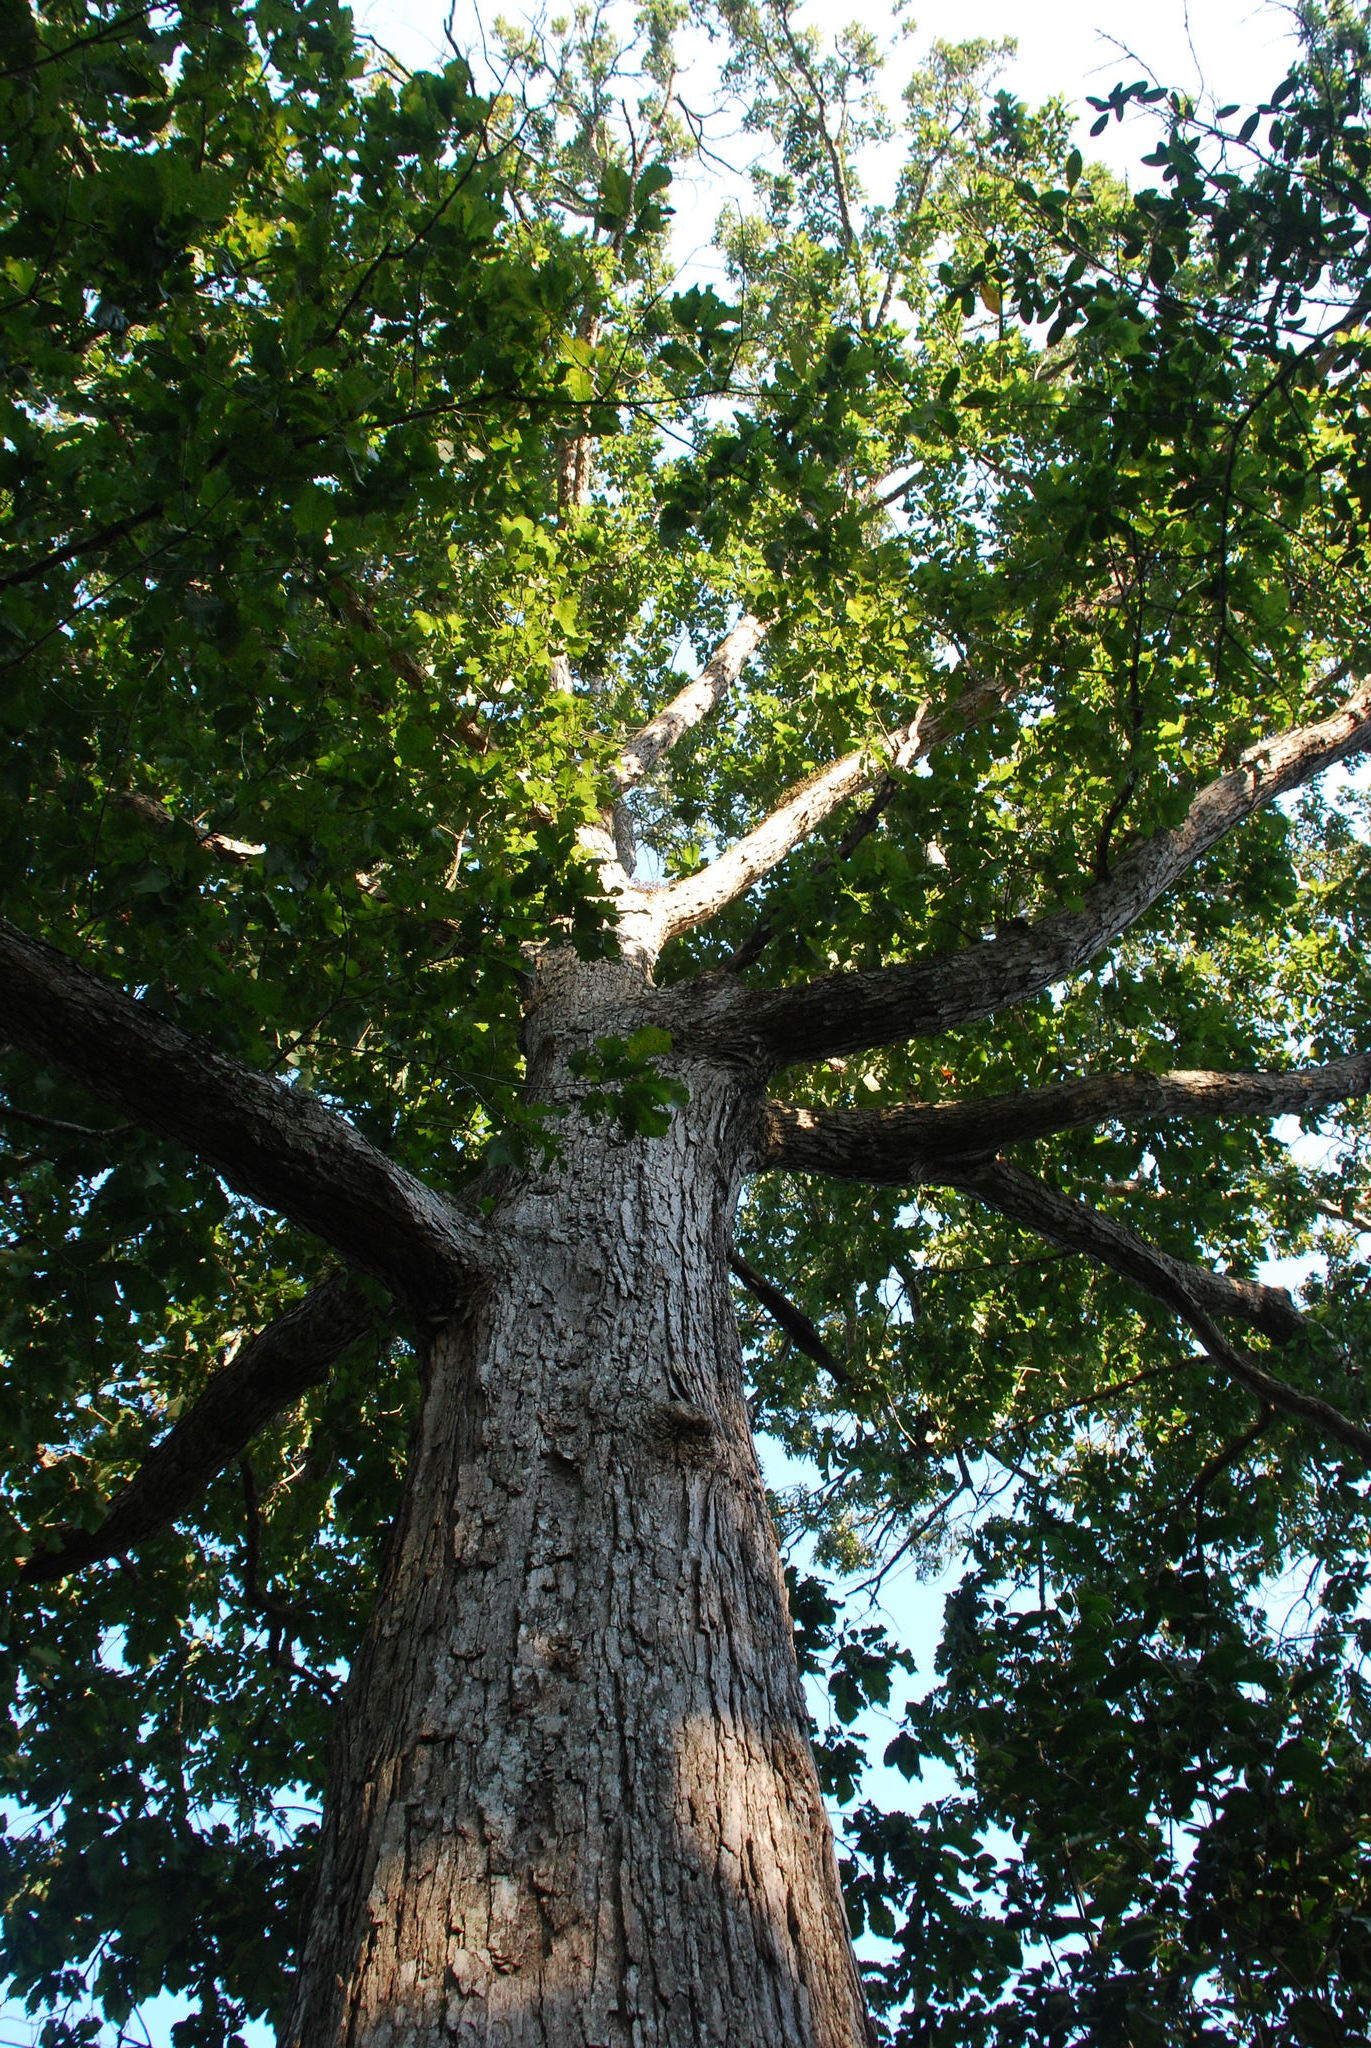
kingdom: Plantae
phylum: Tracheophyta
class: Magnoliopsida
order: Fagales
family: Fagaceae
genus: Quercus
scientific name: Quercus michauxii
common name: Swamp chestnut oak
